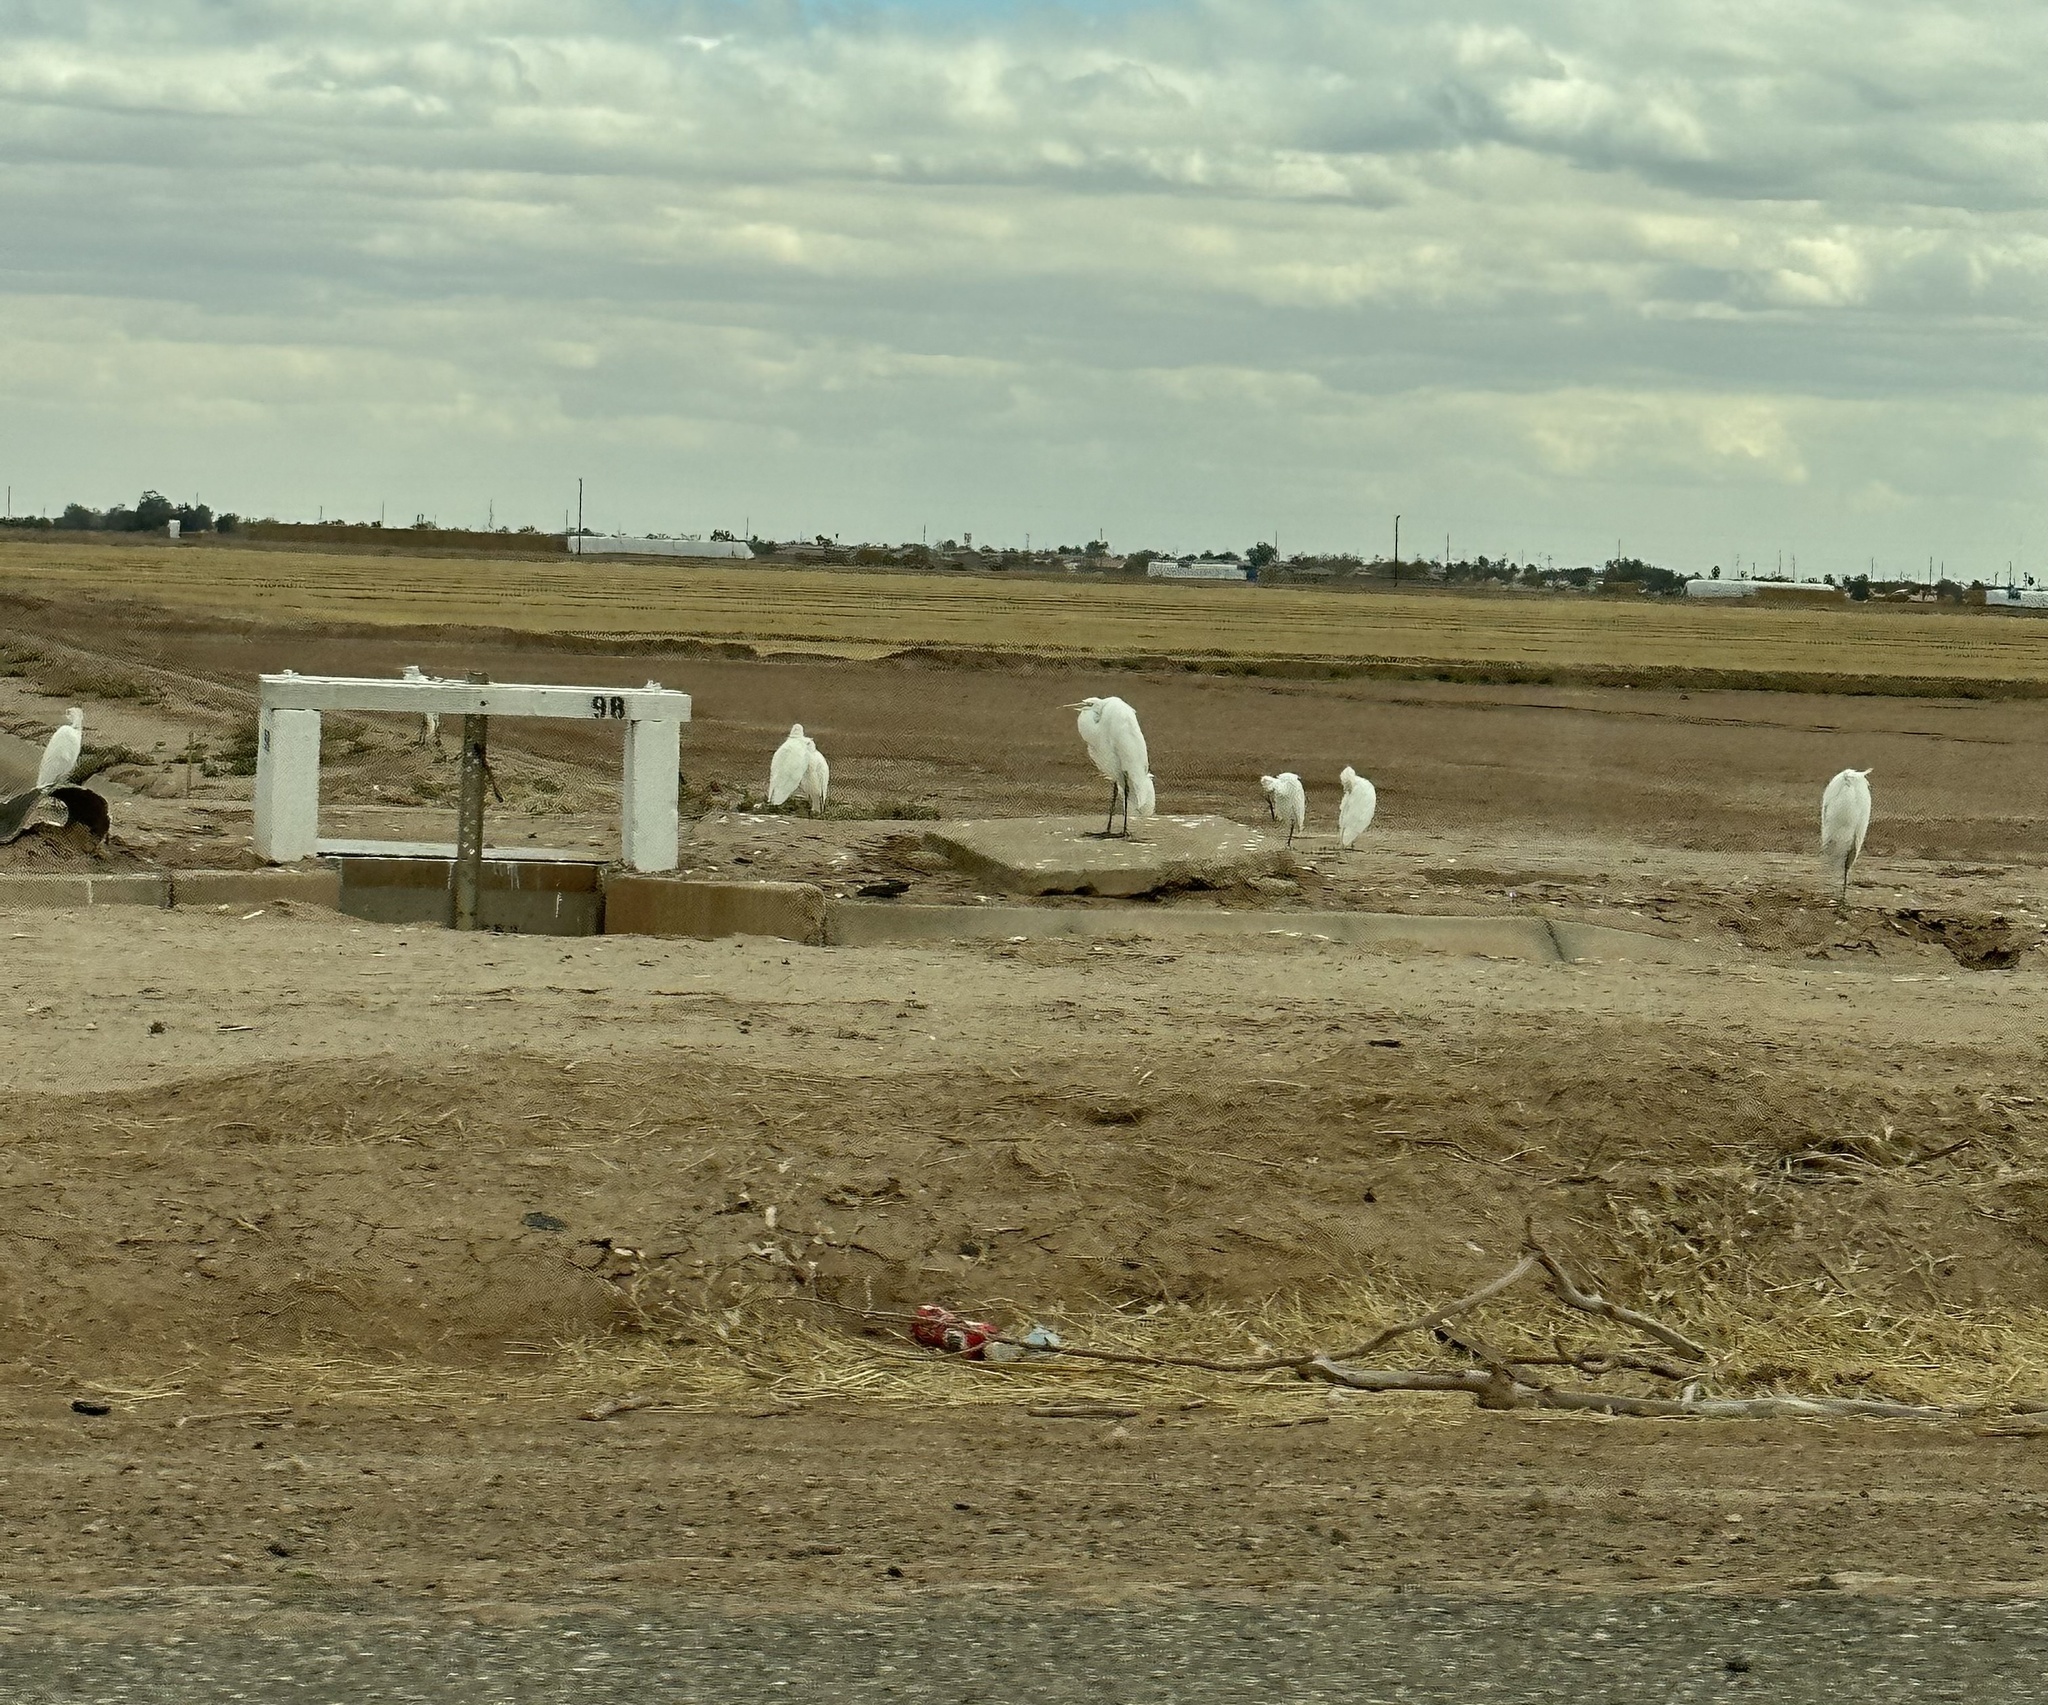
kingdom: Animalia
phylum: Chordata
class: Aves
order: Pelecaniformes
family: Ardeidae
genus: Ardea
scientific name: Ardea alba
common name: Great egret
